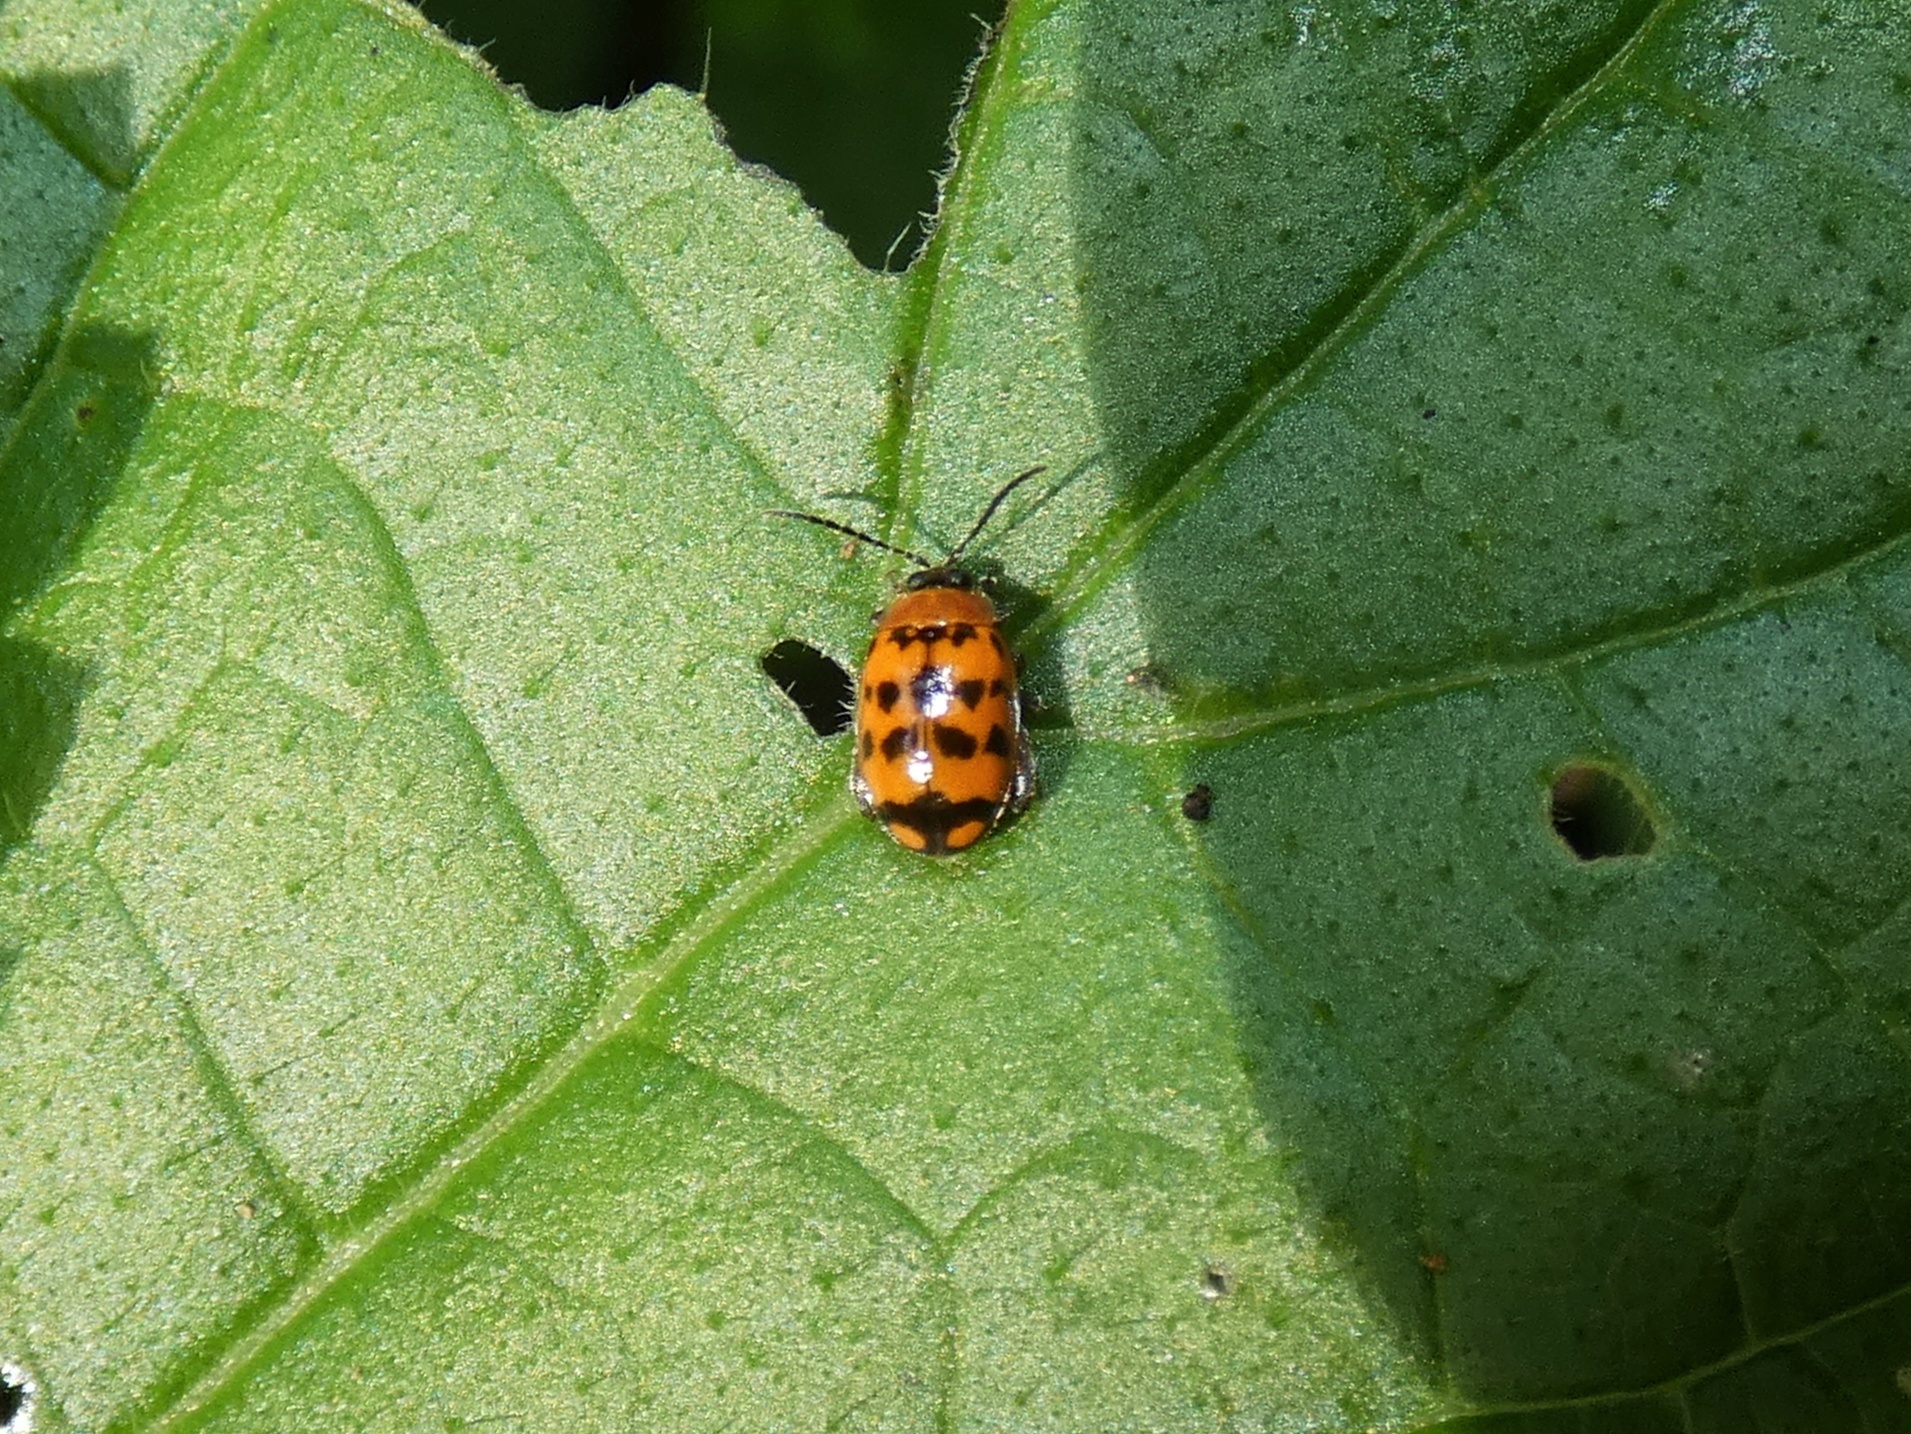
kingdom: Animalia
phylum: Arthropoda
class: Insecta
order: Coleoptera
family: Chrysomelidae
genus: Alagoasa
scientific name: Alagoasa
